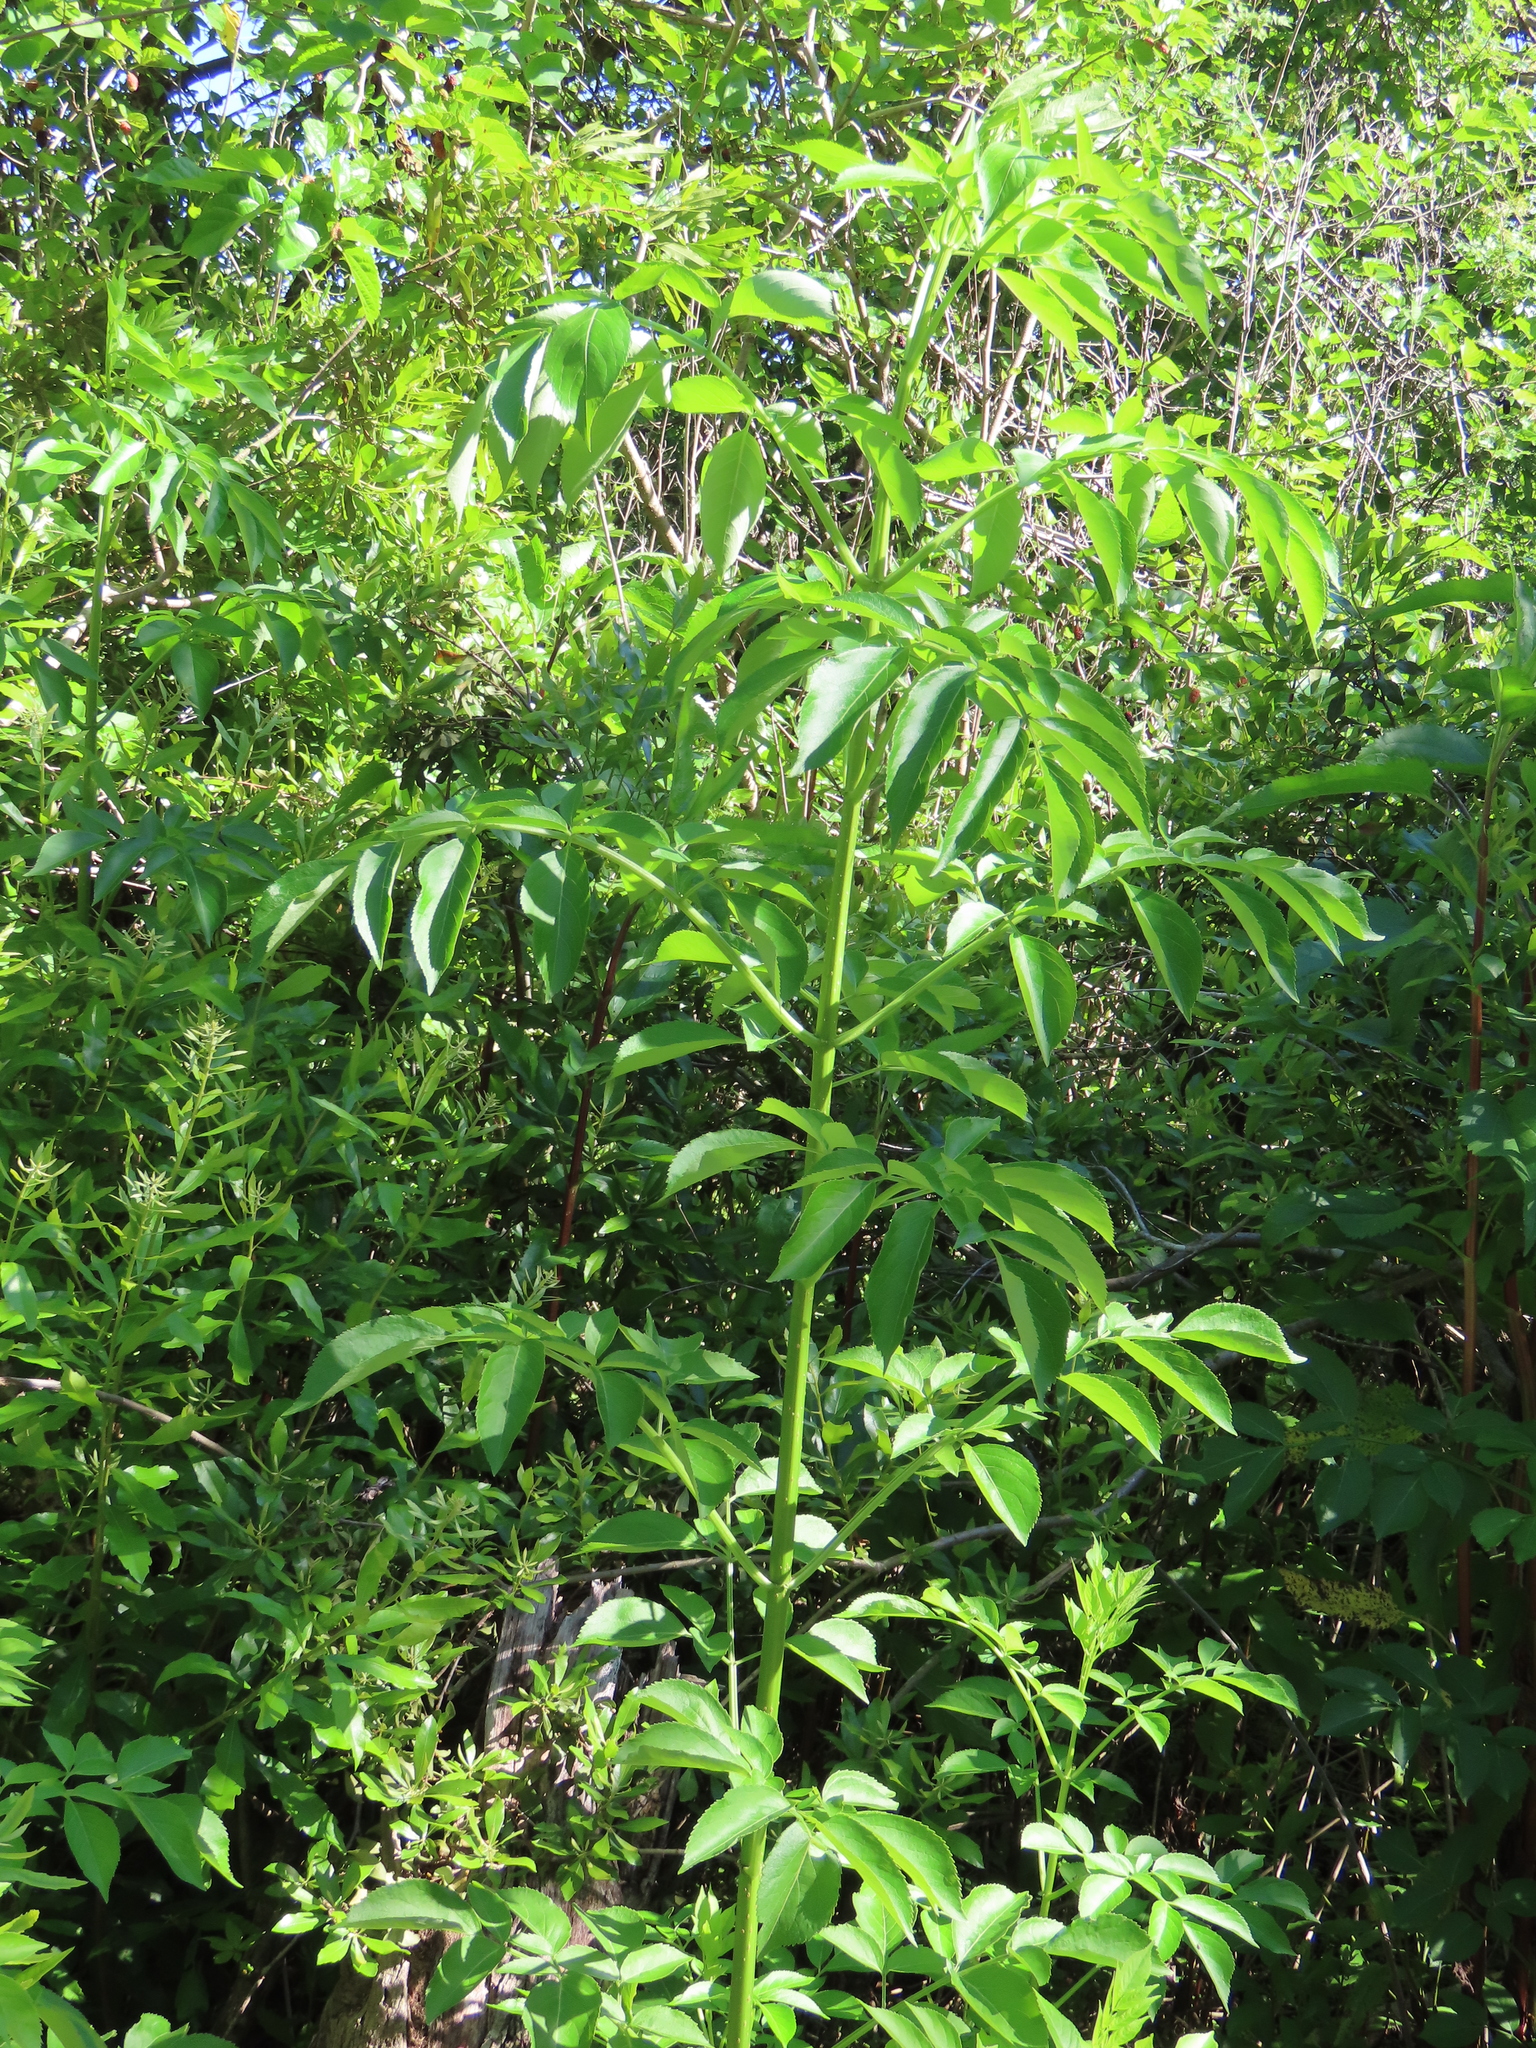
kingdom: Plantae
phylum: Tracheophyta
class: Magnoliopsida
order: Dipsacales
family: Viburnaceae
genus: Sambucus
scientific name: Sambucus canadensis
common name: American elder
